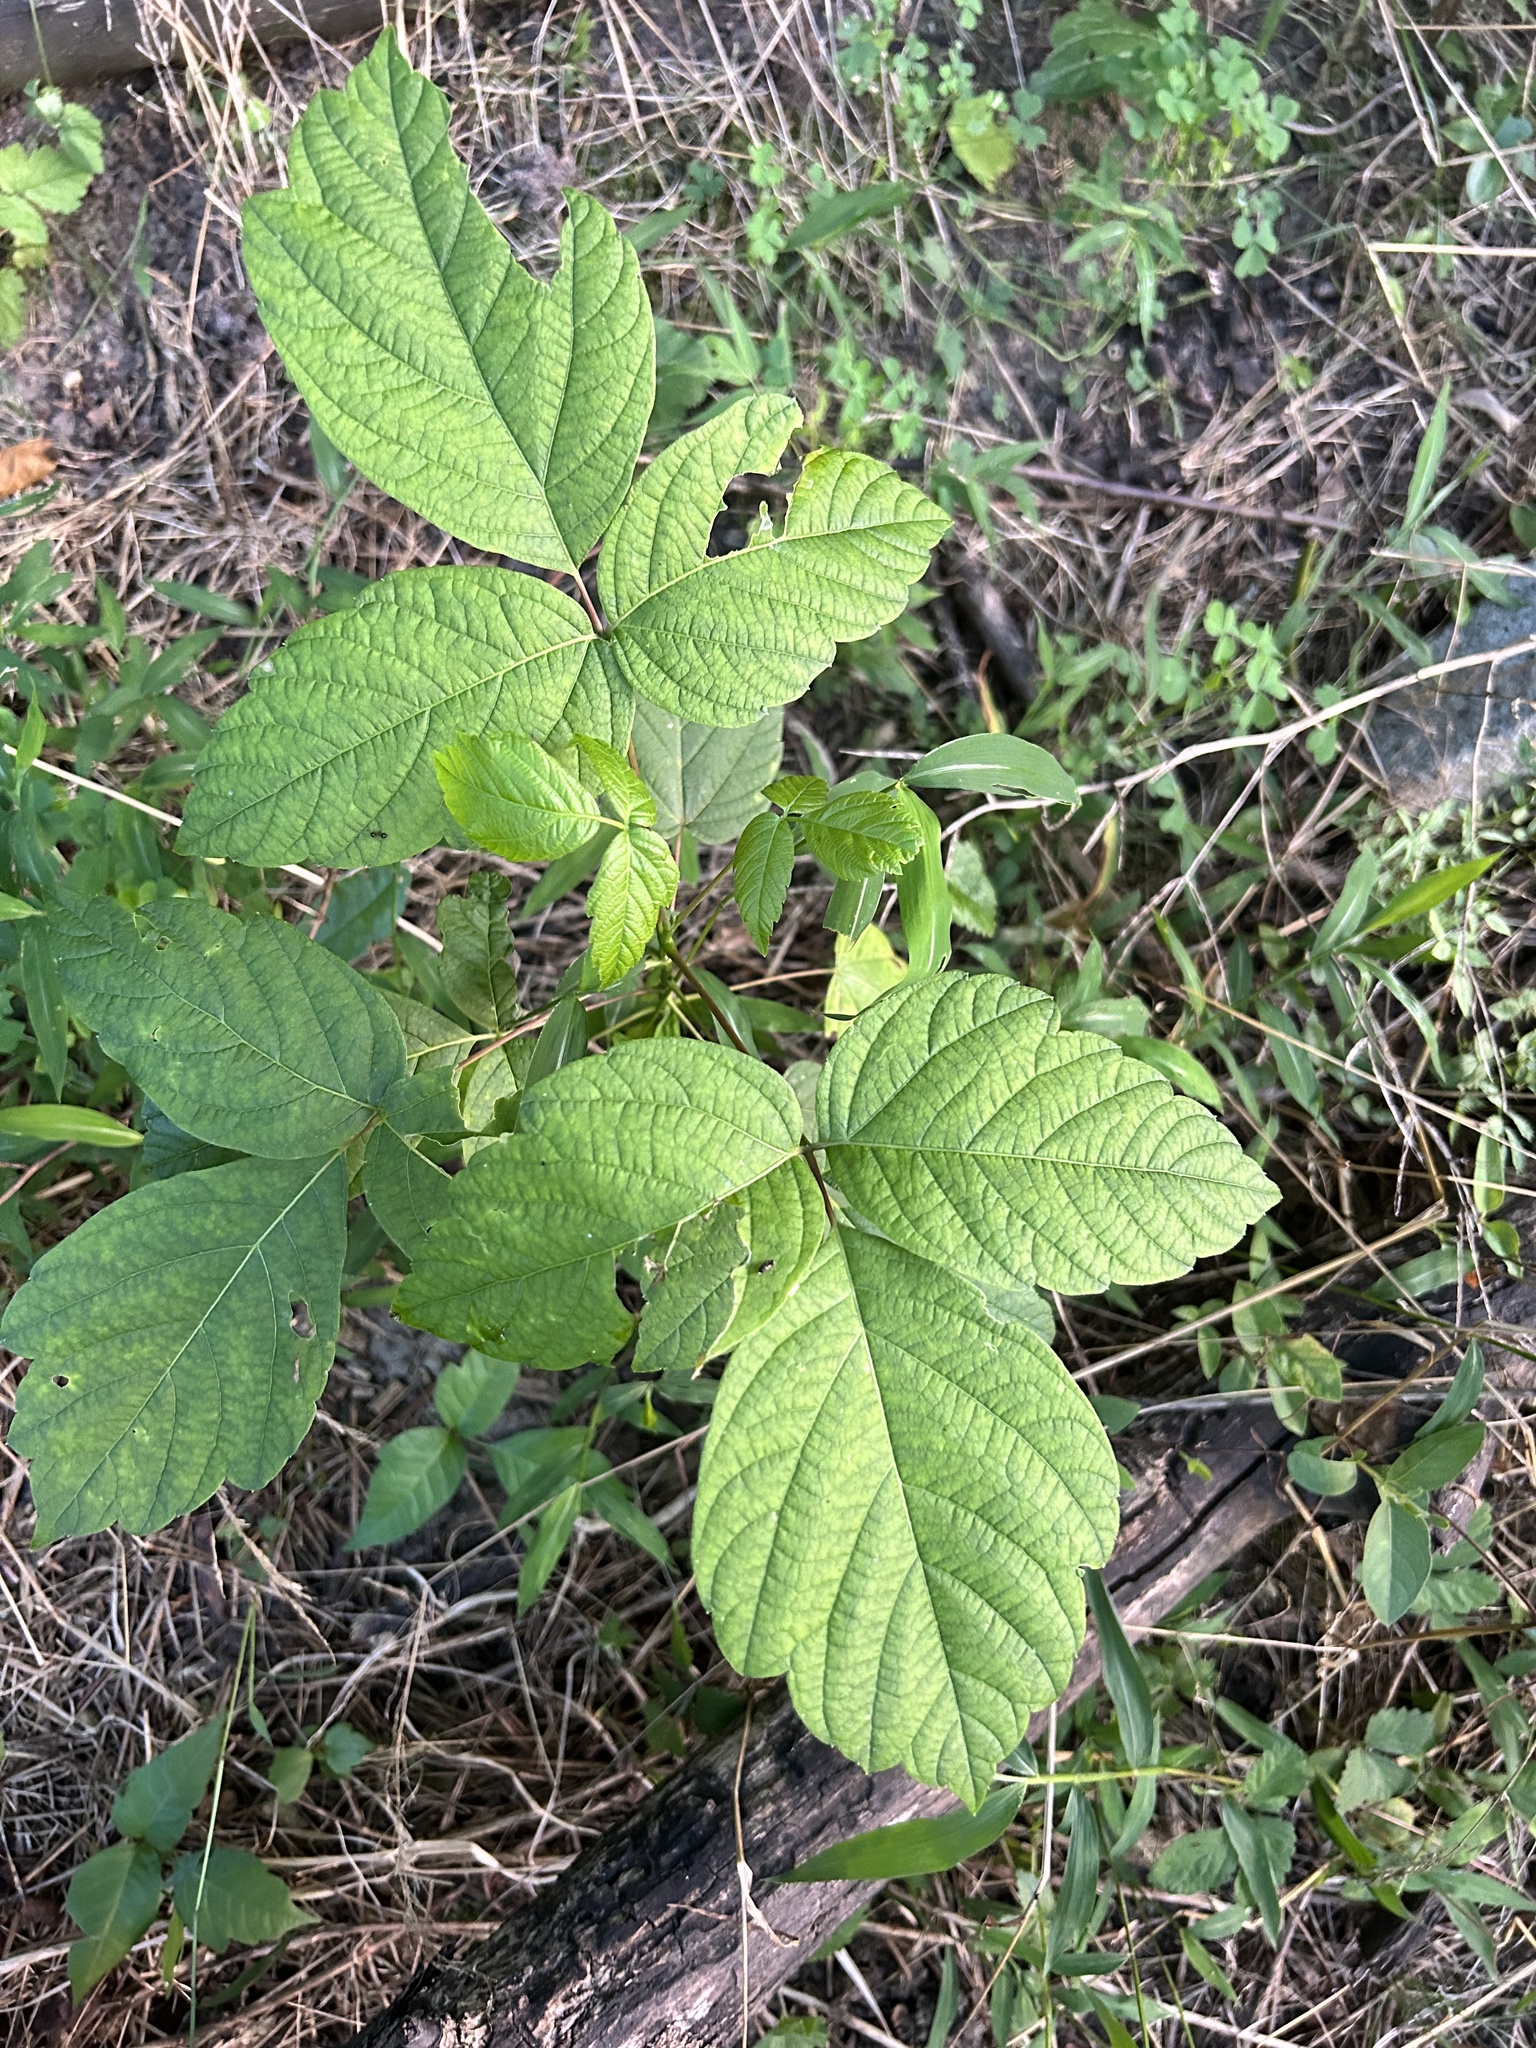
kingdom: Plantae
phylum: Tracheophyta
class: Magnoliopsida
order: Sapindales
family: Sapindaceae
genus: Acer
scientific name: Acer negundo
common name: Ashleaf maple
